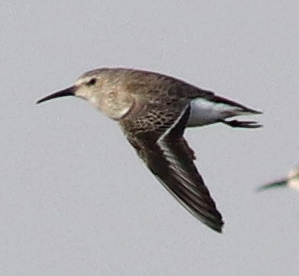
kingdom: Animalia
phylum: Chordata
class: Aves
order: Charadriiformes
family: Scolopacidae
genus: Calidris
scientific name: Calidris alpina
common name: Dunlin
